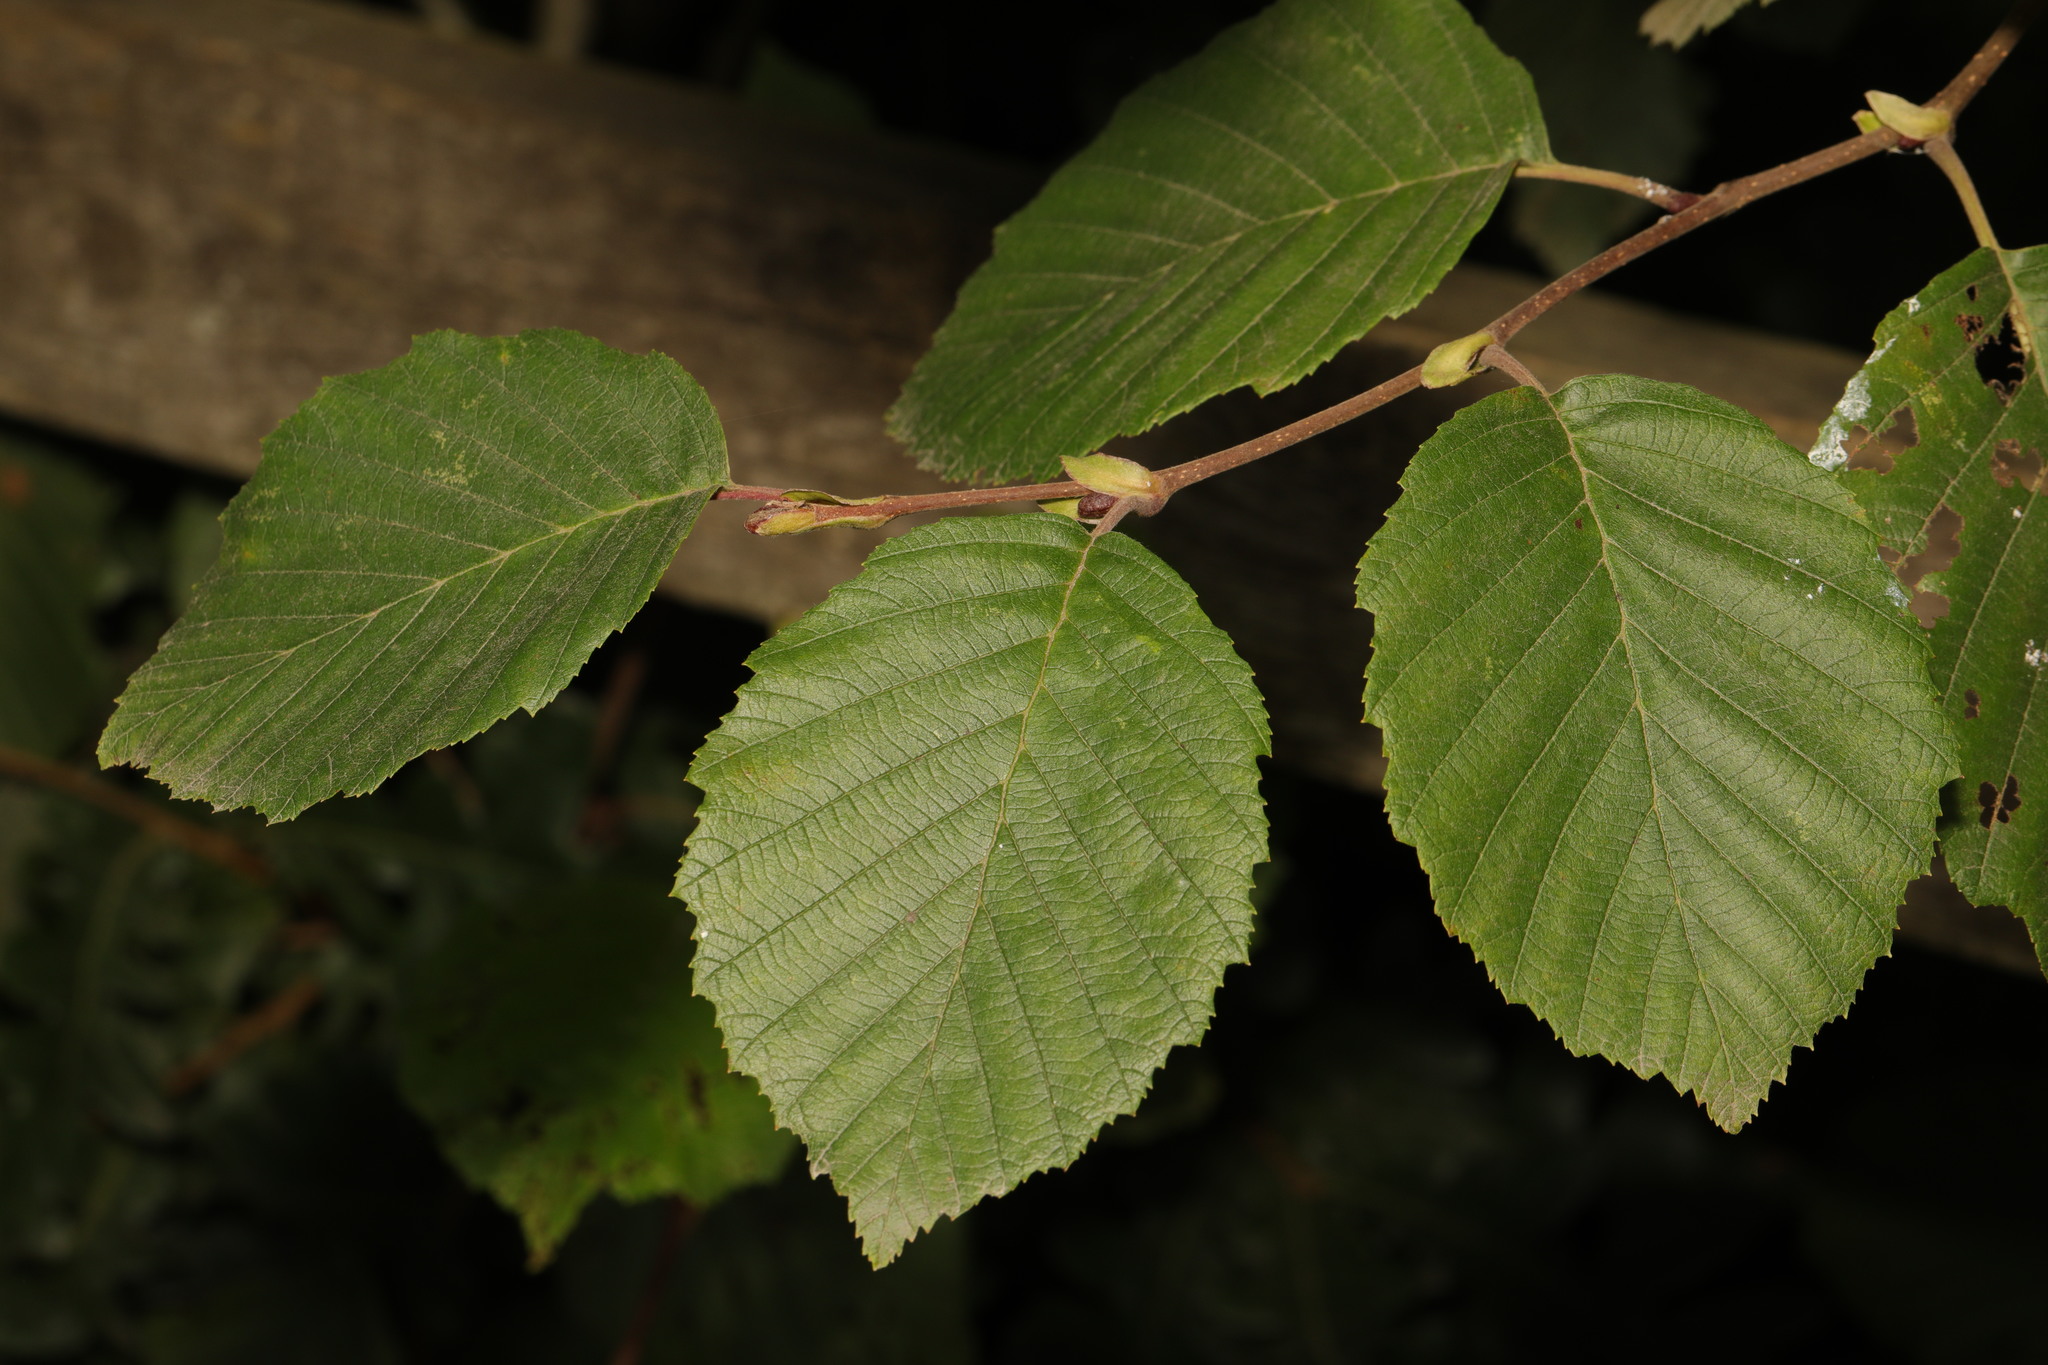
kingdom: Plantae
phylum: Tracheophyta
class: Magnoliopsida
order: Fagales
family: Betulaceae
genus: Alnus
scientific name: Alnus incana
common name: Grey alder
